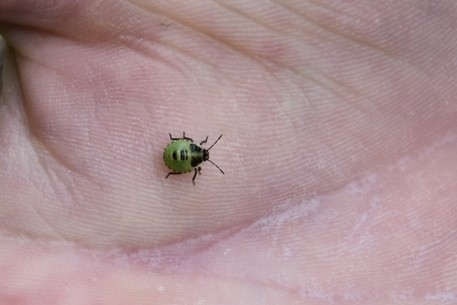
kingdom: Animalia
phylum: Arthropoda
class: Insecta
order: Hemiptera
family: Pentatomidae
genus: Palomena
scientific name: Palomena prasina
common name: Green shieldbug
